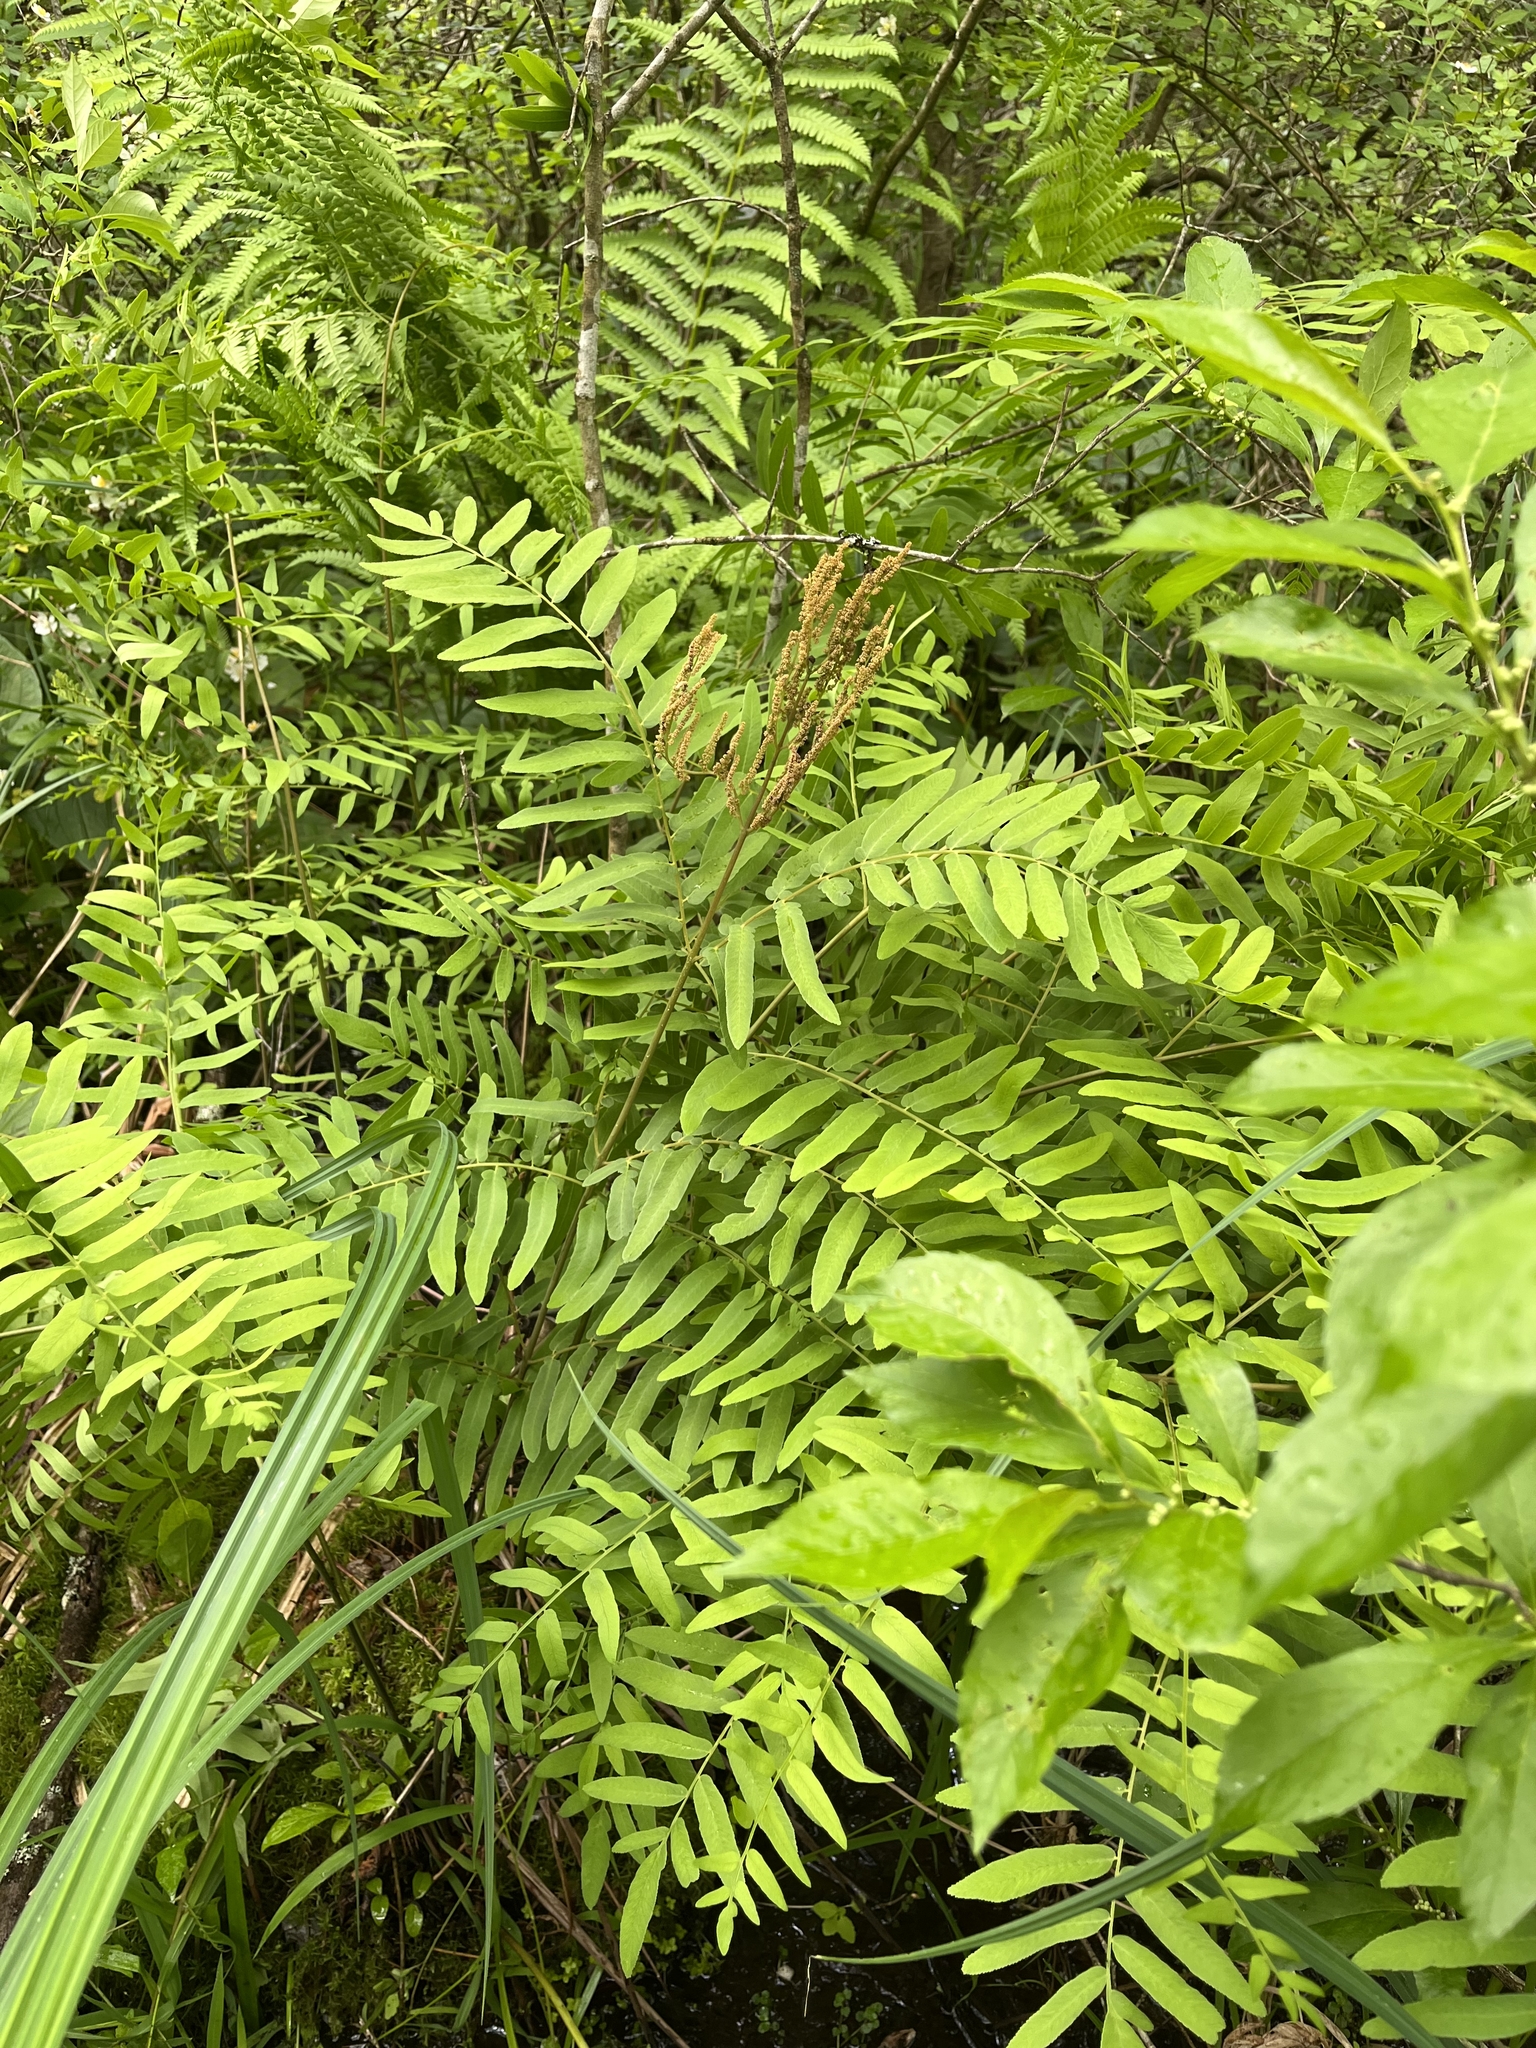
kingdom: Plantae
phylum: Tracheophyta
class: Polypodiopsida
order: Osmundales
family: Osmundaceae
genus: Osmunda
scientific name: Osmunda spectabilis
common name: American royal fern
